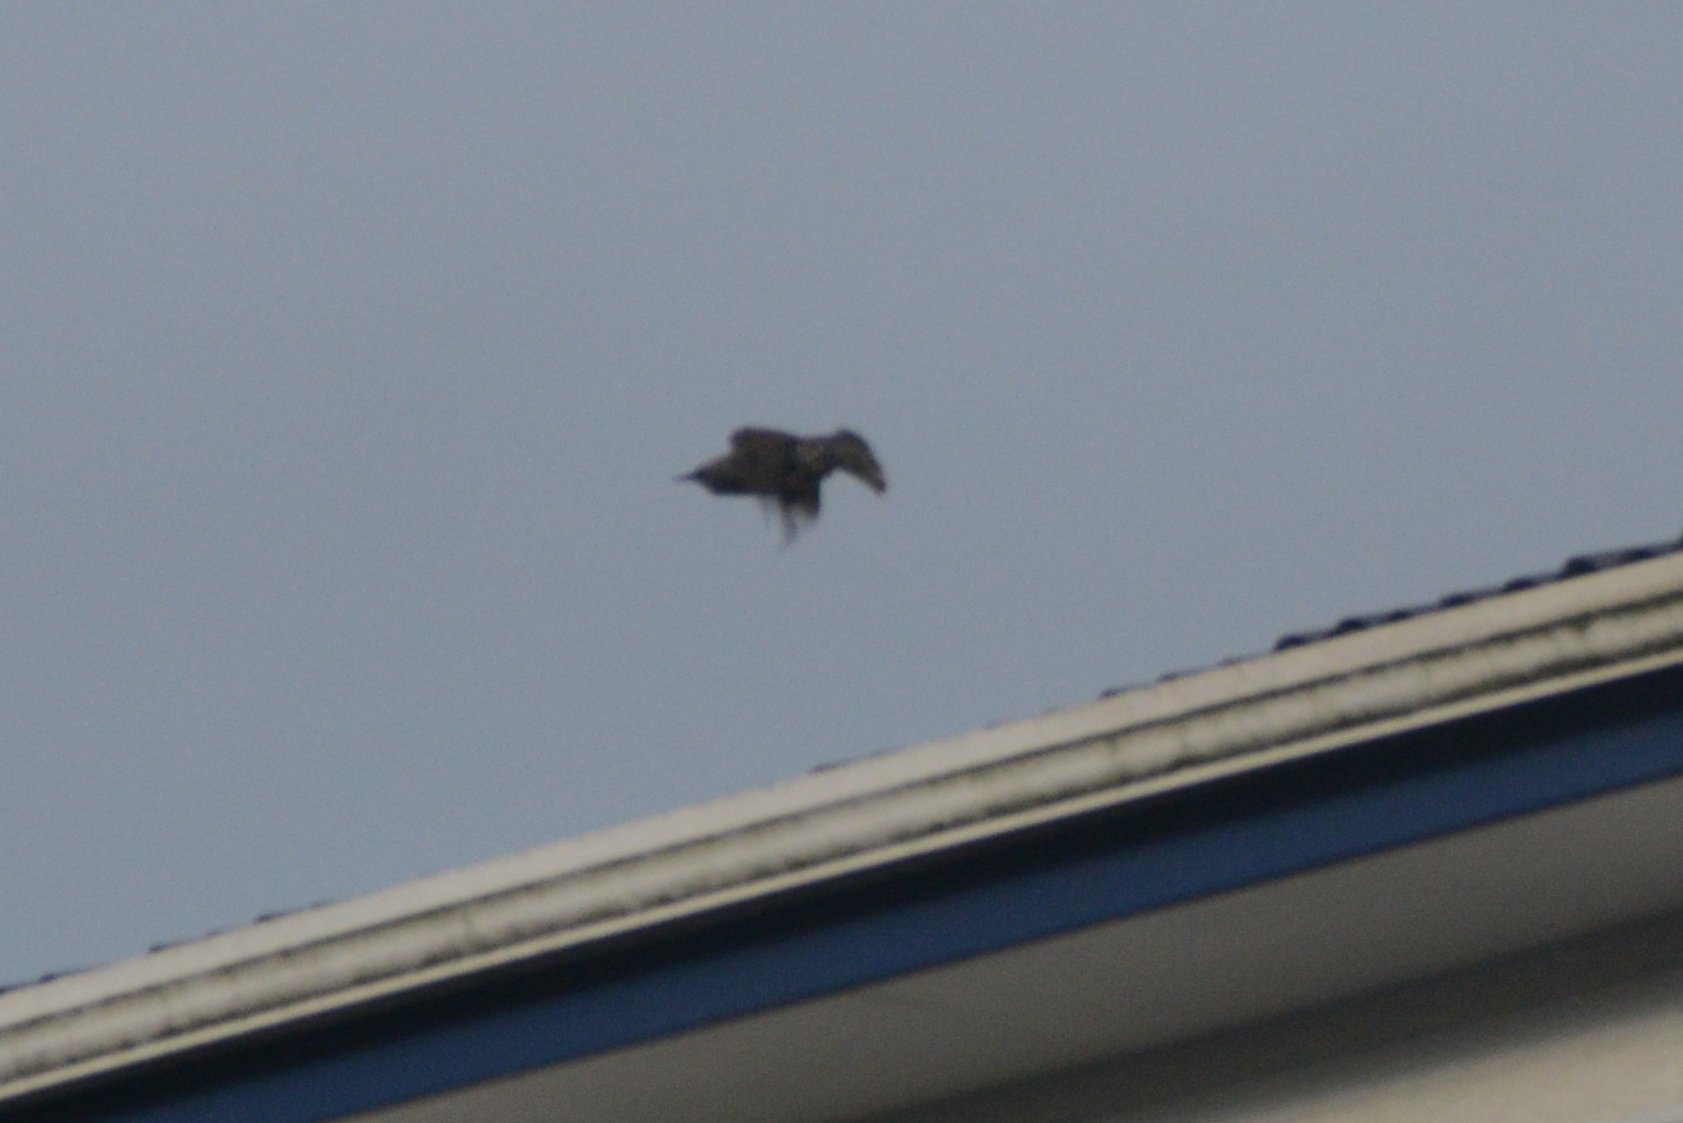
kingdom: Animalia
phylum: Chordata
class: Aves
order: Passeriformes
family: Sturnidae
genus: Sturnus
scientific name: Sturnus vulgaris
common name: Common starling
